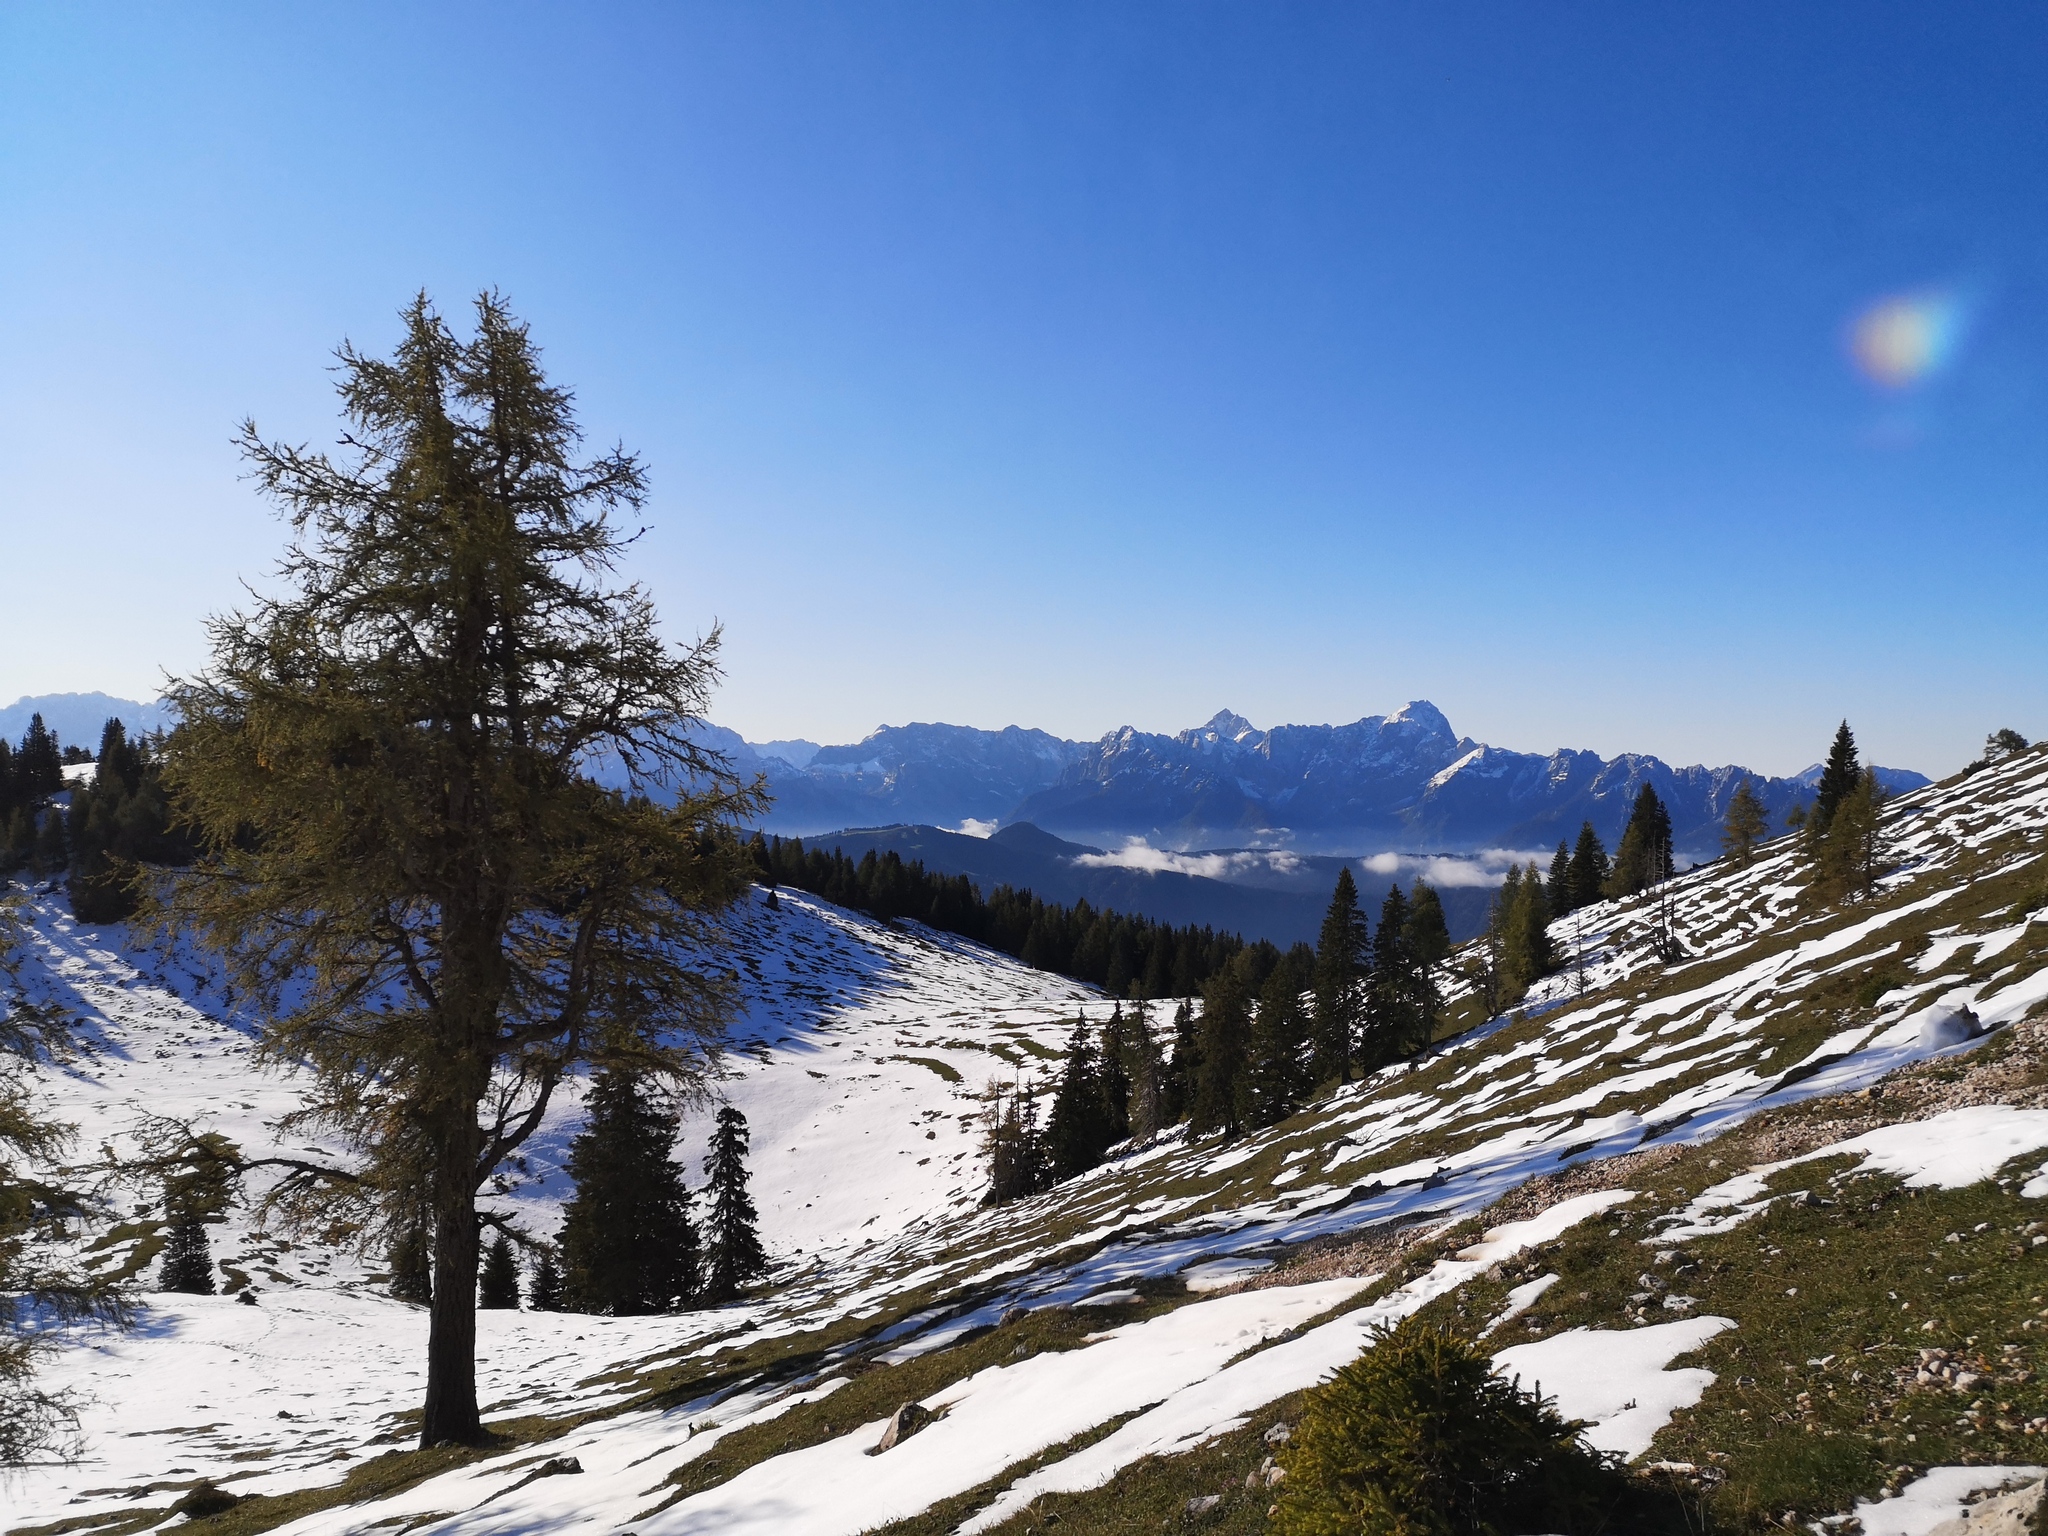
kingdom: Plantae
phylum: Tracheophyta
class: Pinopsida
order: Pinales
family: Pinaceae
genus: Larix
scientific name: Larix decidua
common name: European larch
